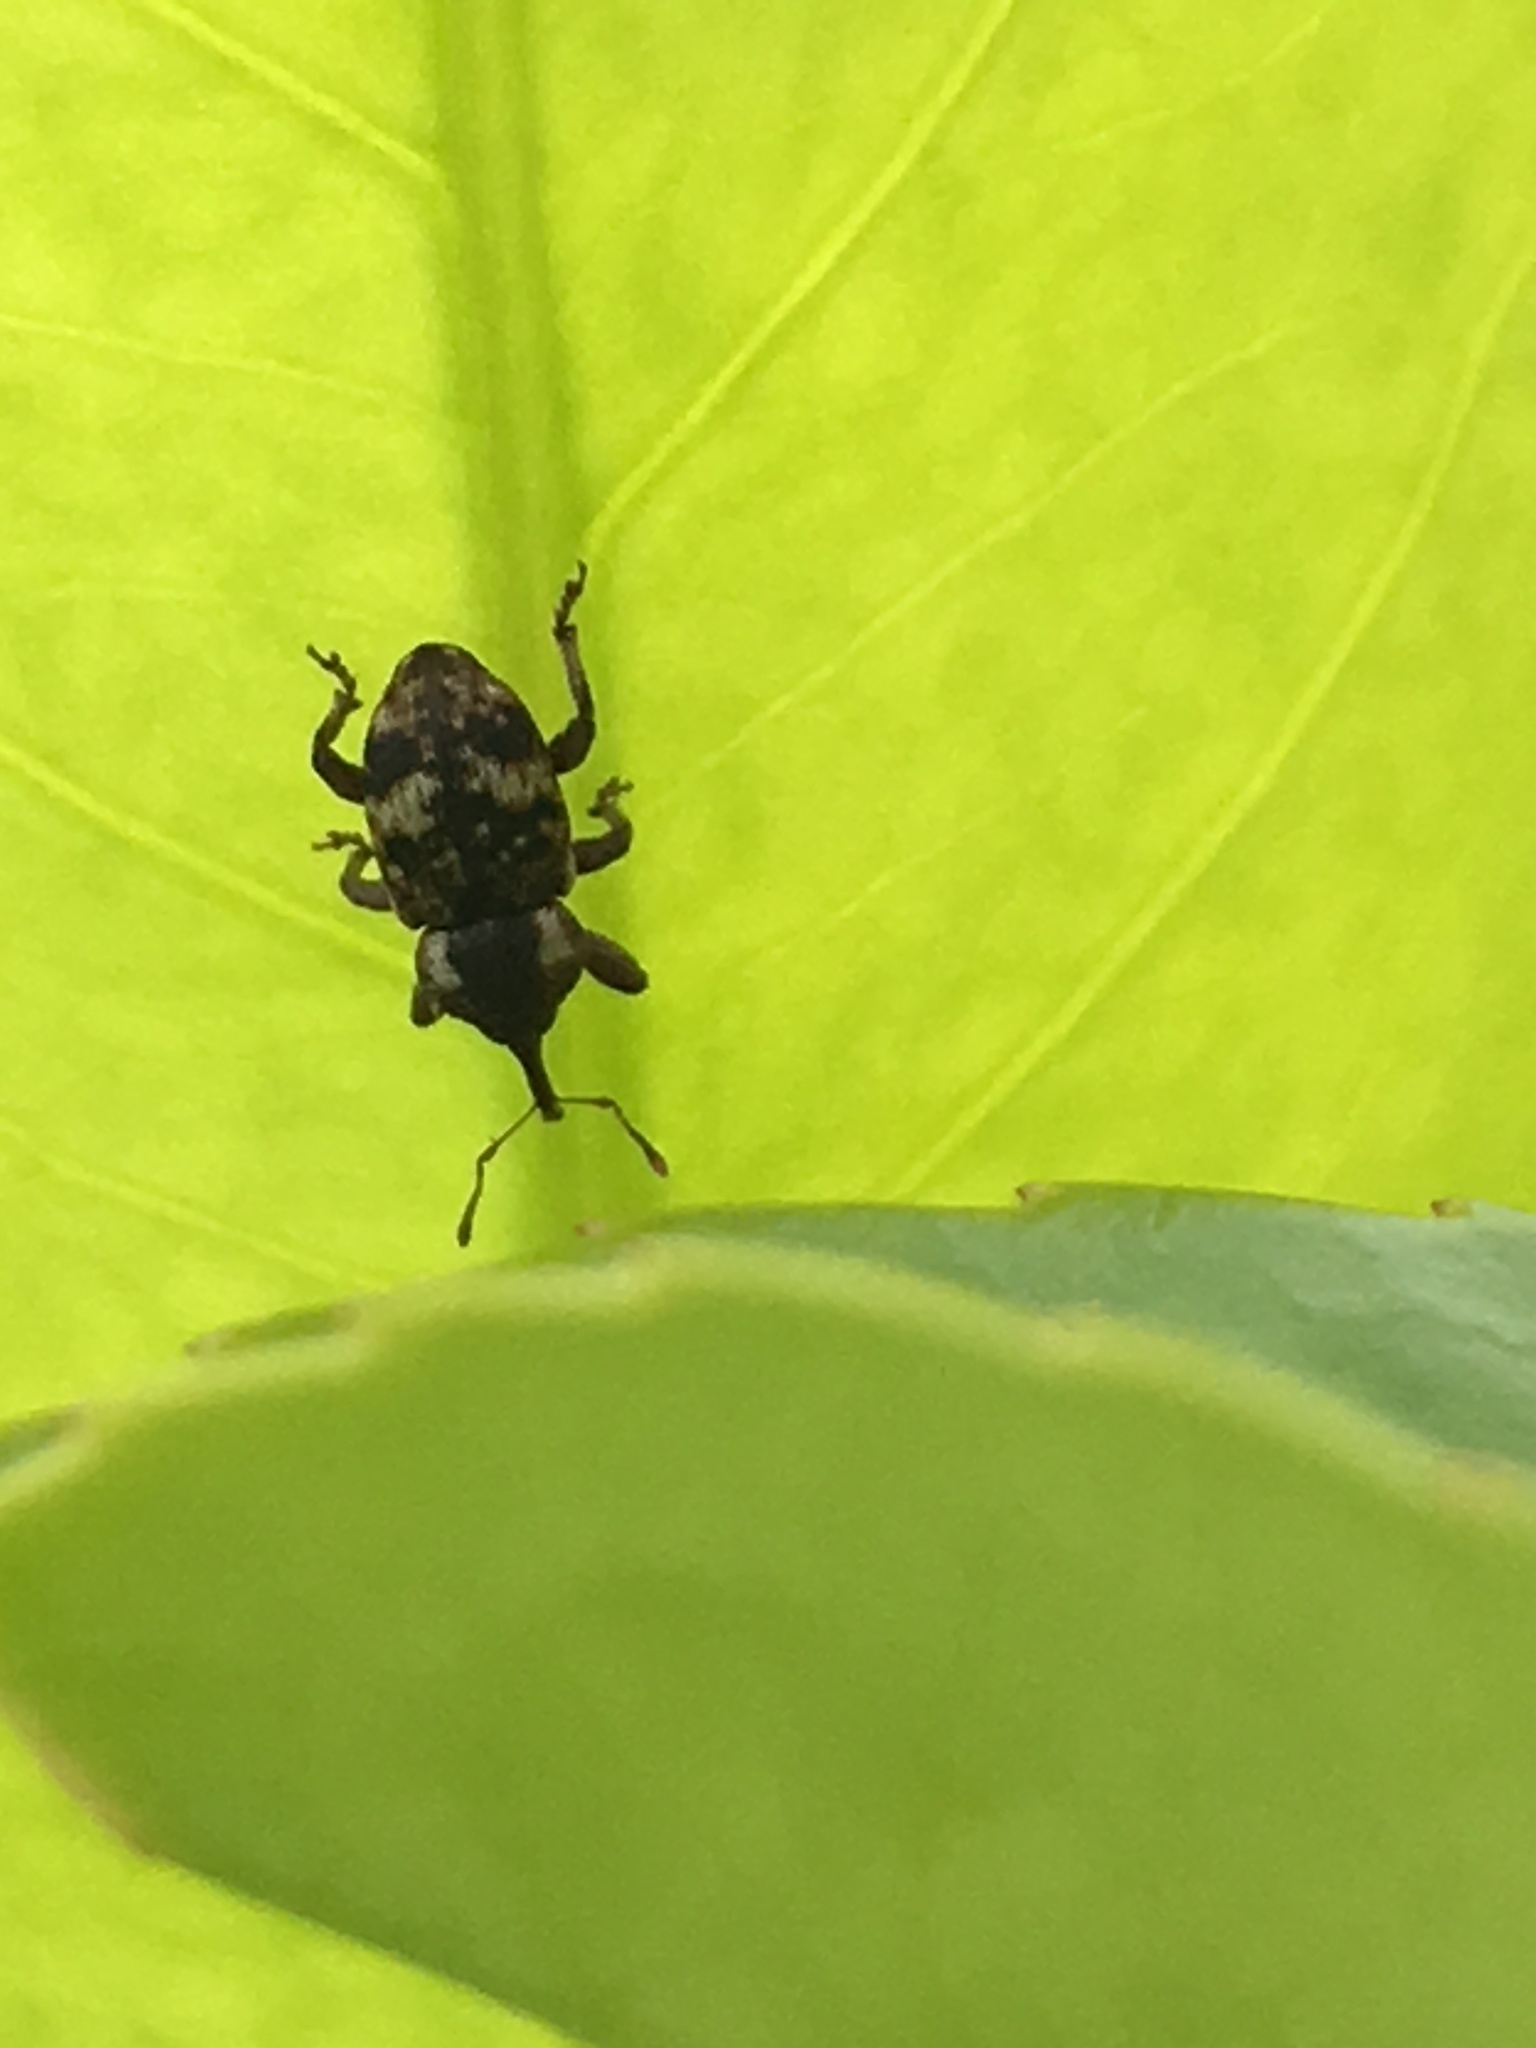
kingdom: Animalia
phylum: Arthropoda
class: Insecta
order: Coleoptera
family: Curculionidae
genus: Pachytychius
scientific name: Pachytychius sparsutus
